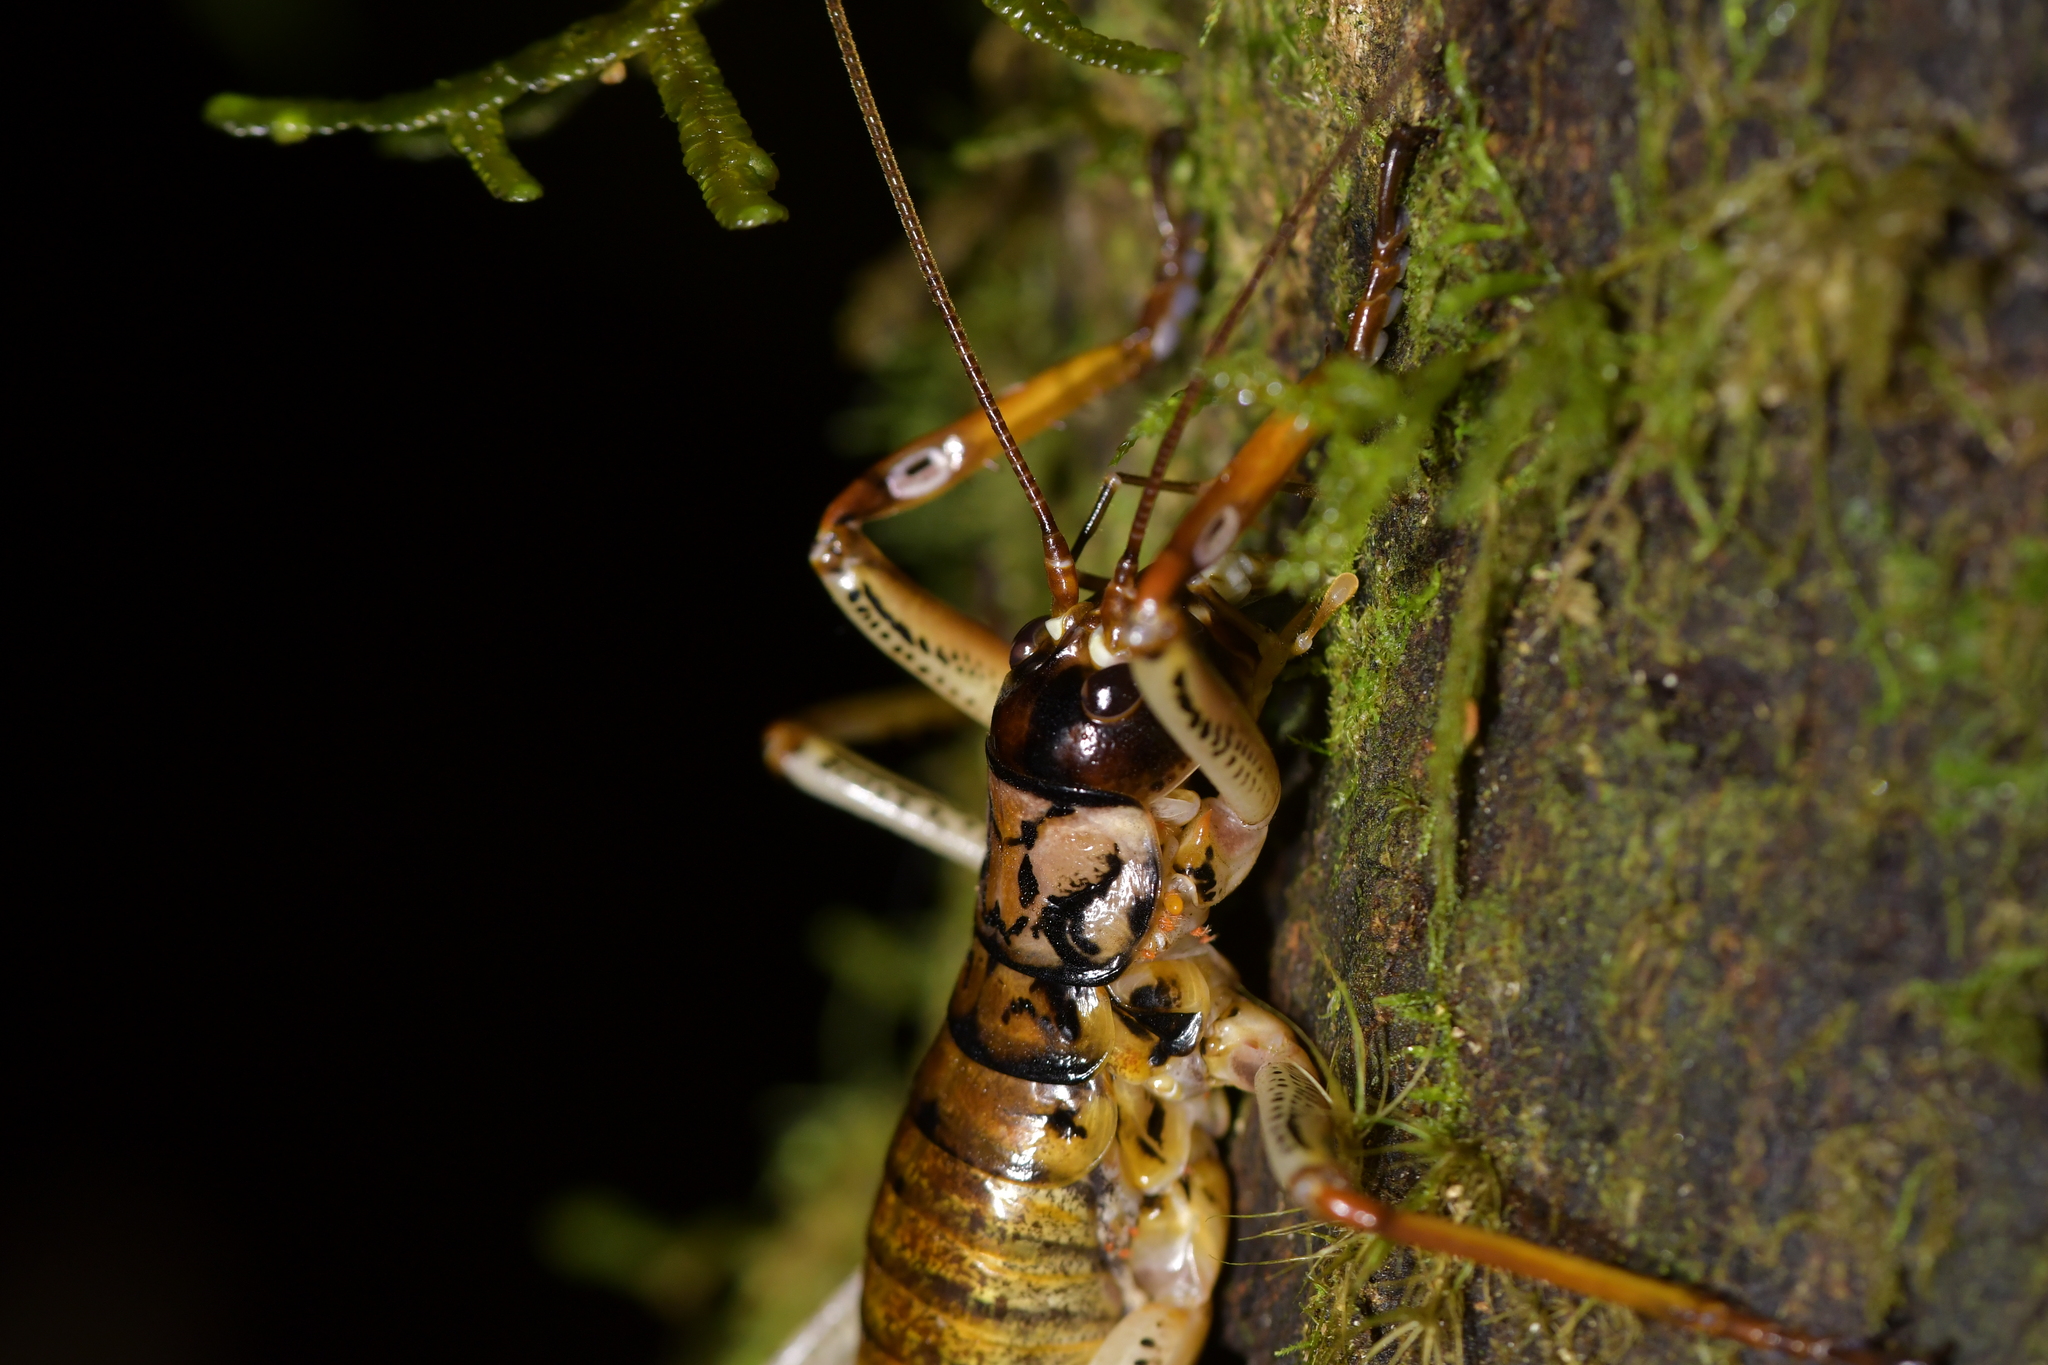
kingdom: Animalia
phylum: Arthropoda
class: Insecta
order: Orthoptera
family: Anostostomatidae
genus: Hemideina
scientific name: Hemideina thoracica
